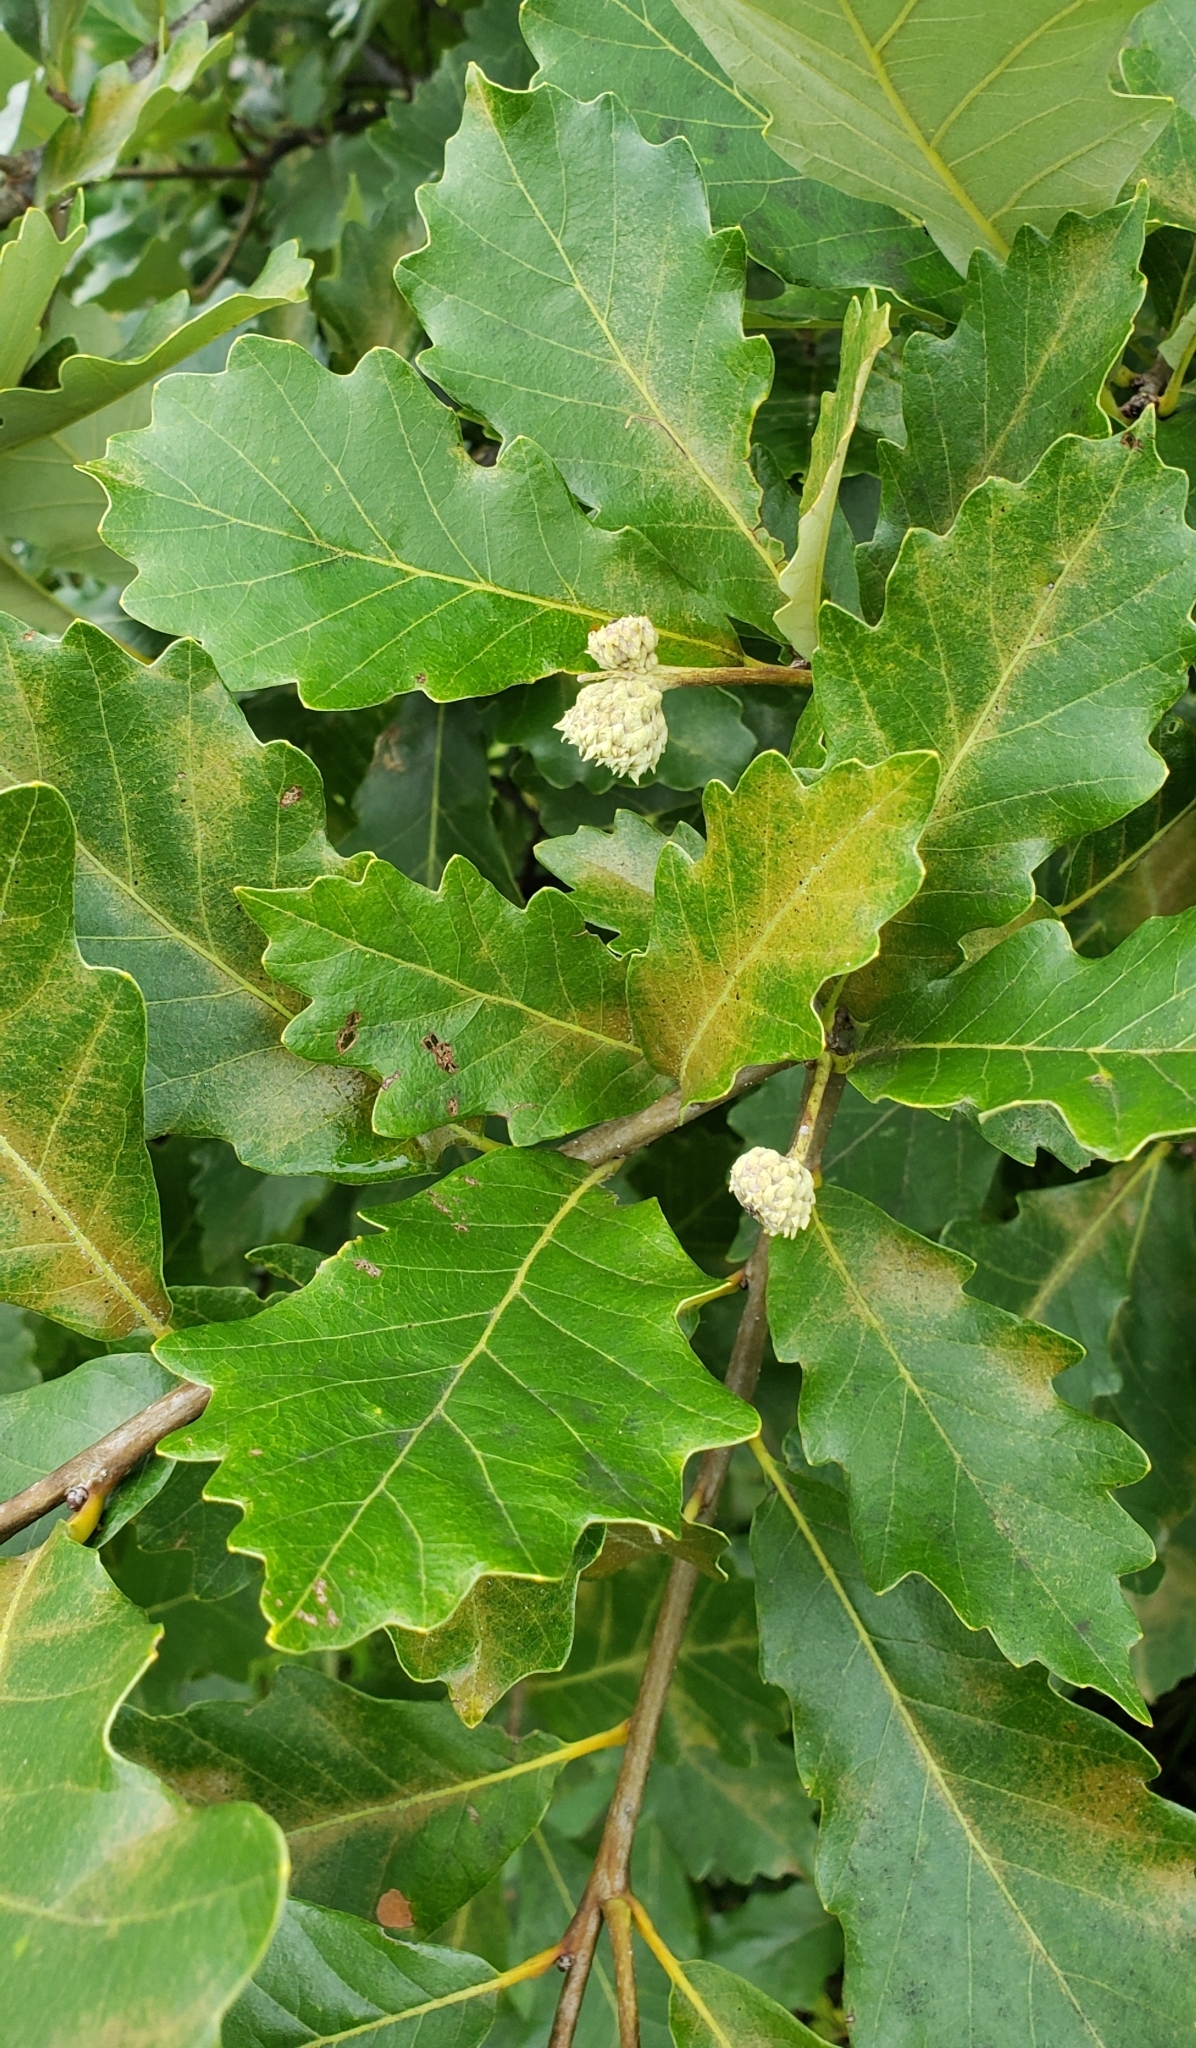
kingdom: Plantae
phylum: Tracheophyta
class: Magnoliopsida
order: Fagales
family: Fagaceae
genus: Quercus
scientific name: Quercus bicolor
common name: Swamp white oak
